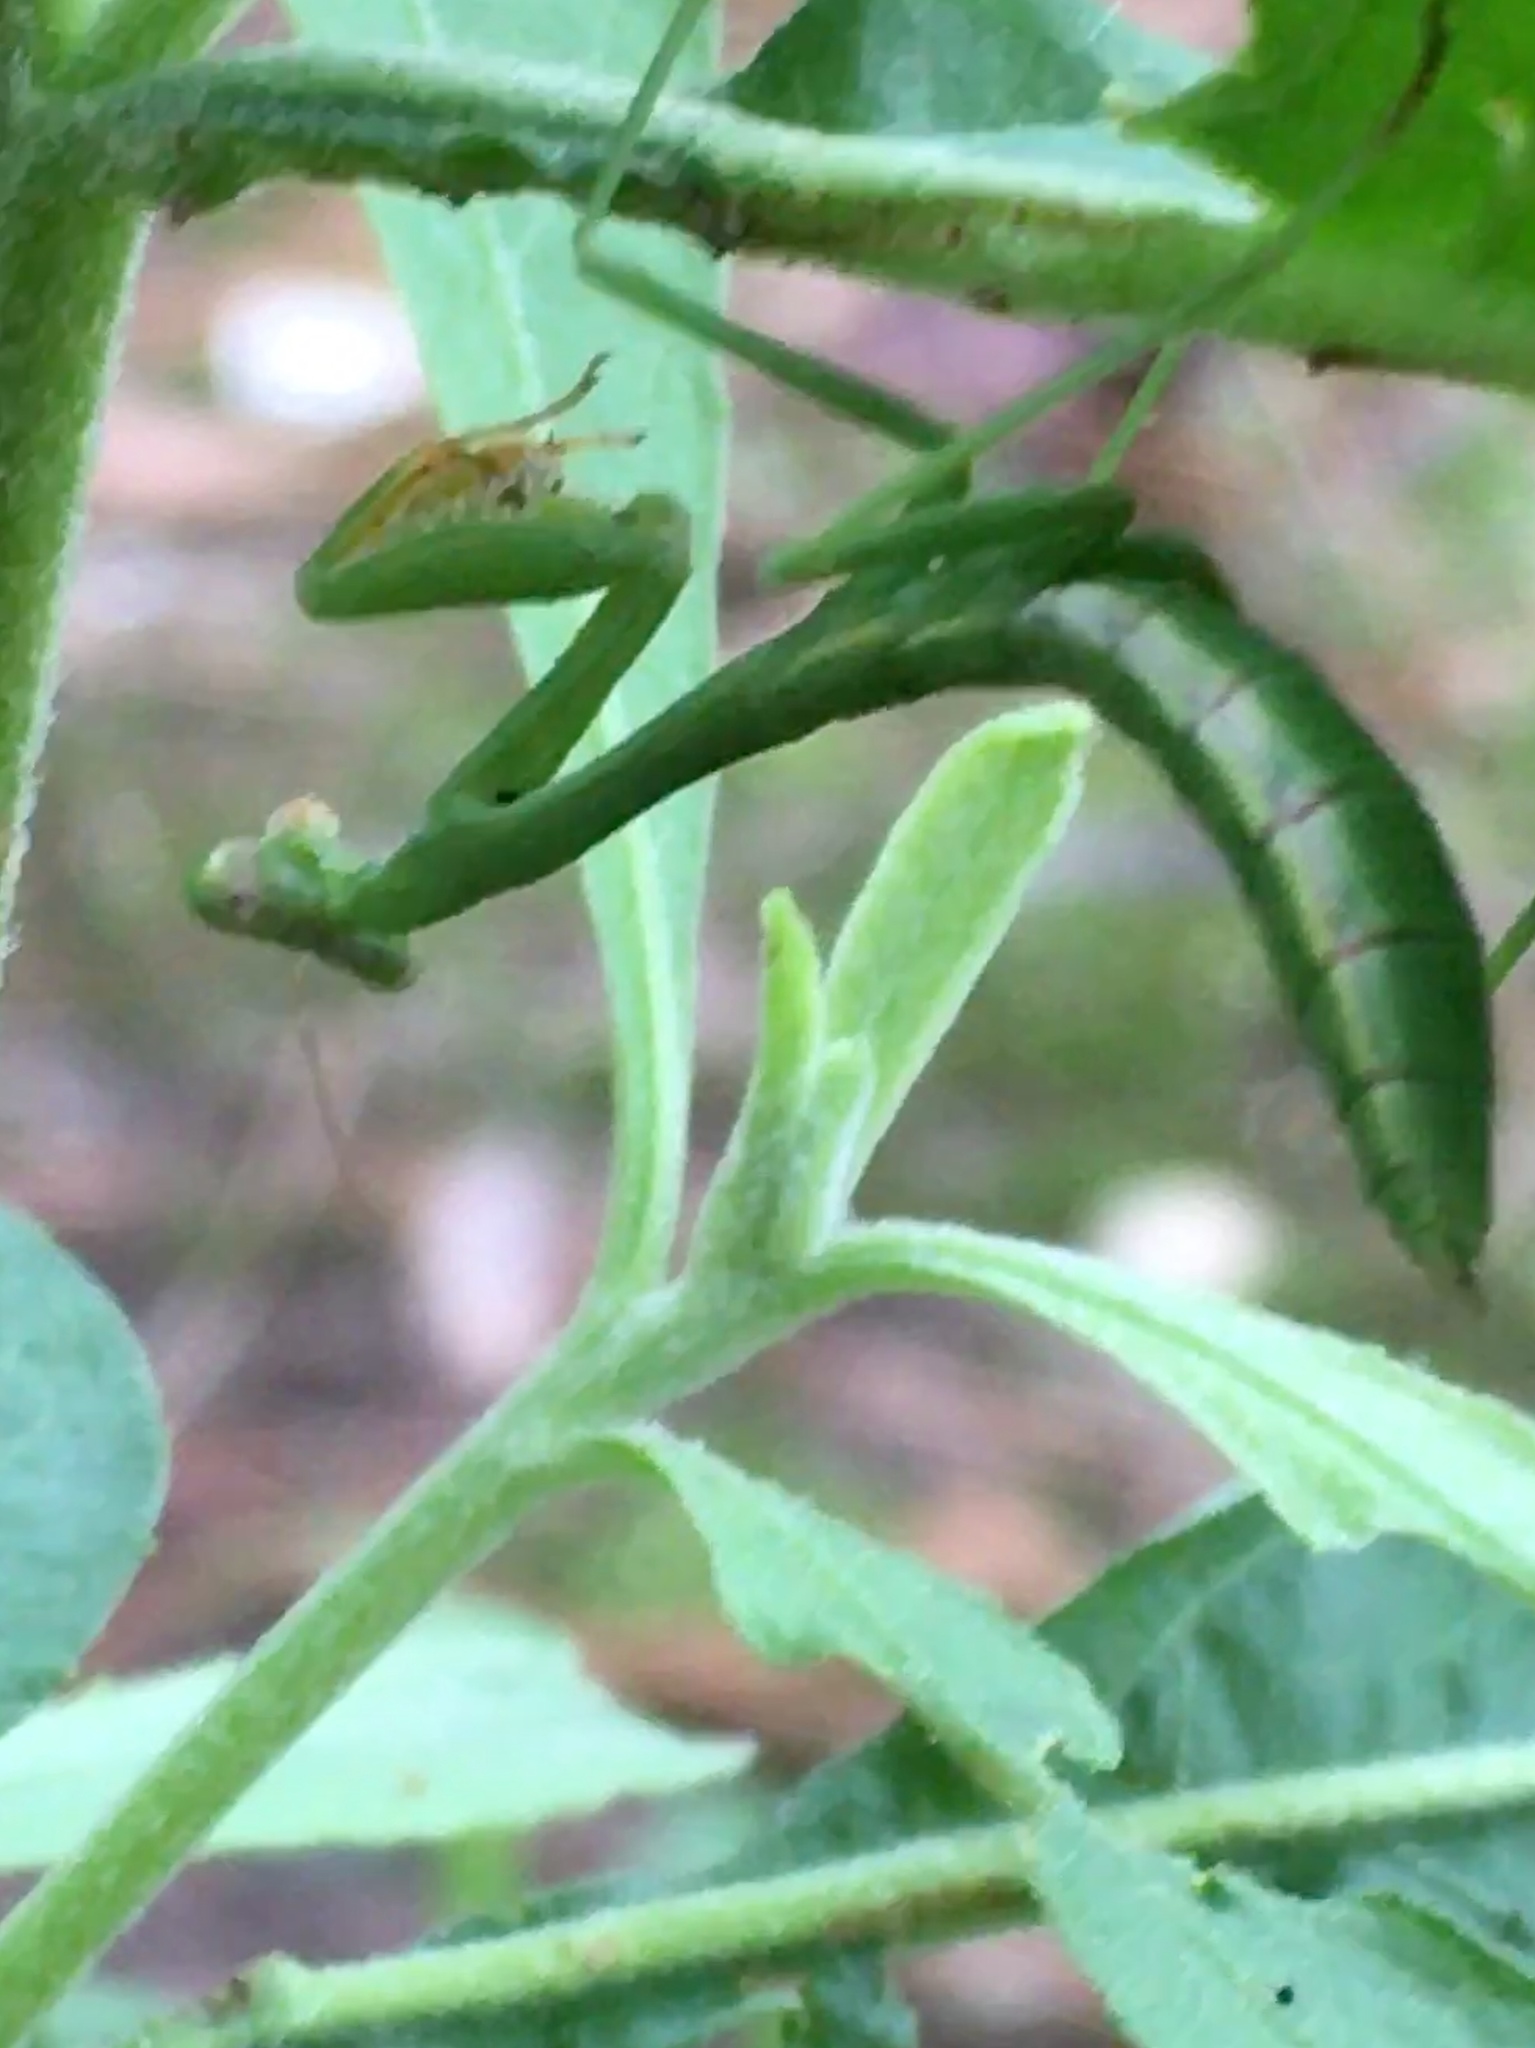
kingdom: Animalia
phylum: Arthropoda
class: Insecta
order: Mantodea
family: Mantidae
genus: Stagmomantis
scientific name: Stagmomantis carolina
